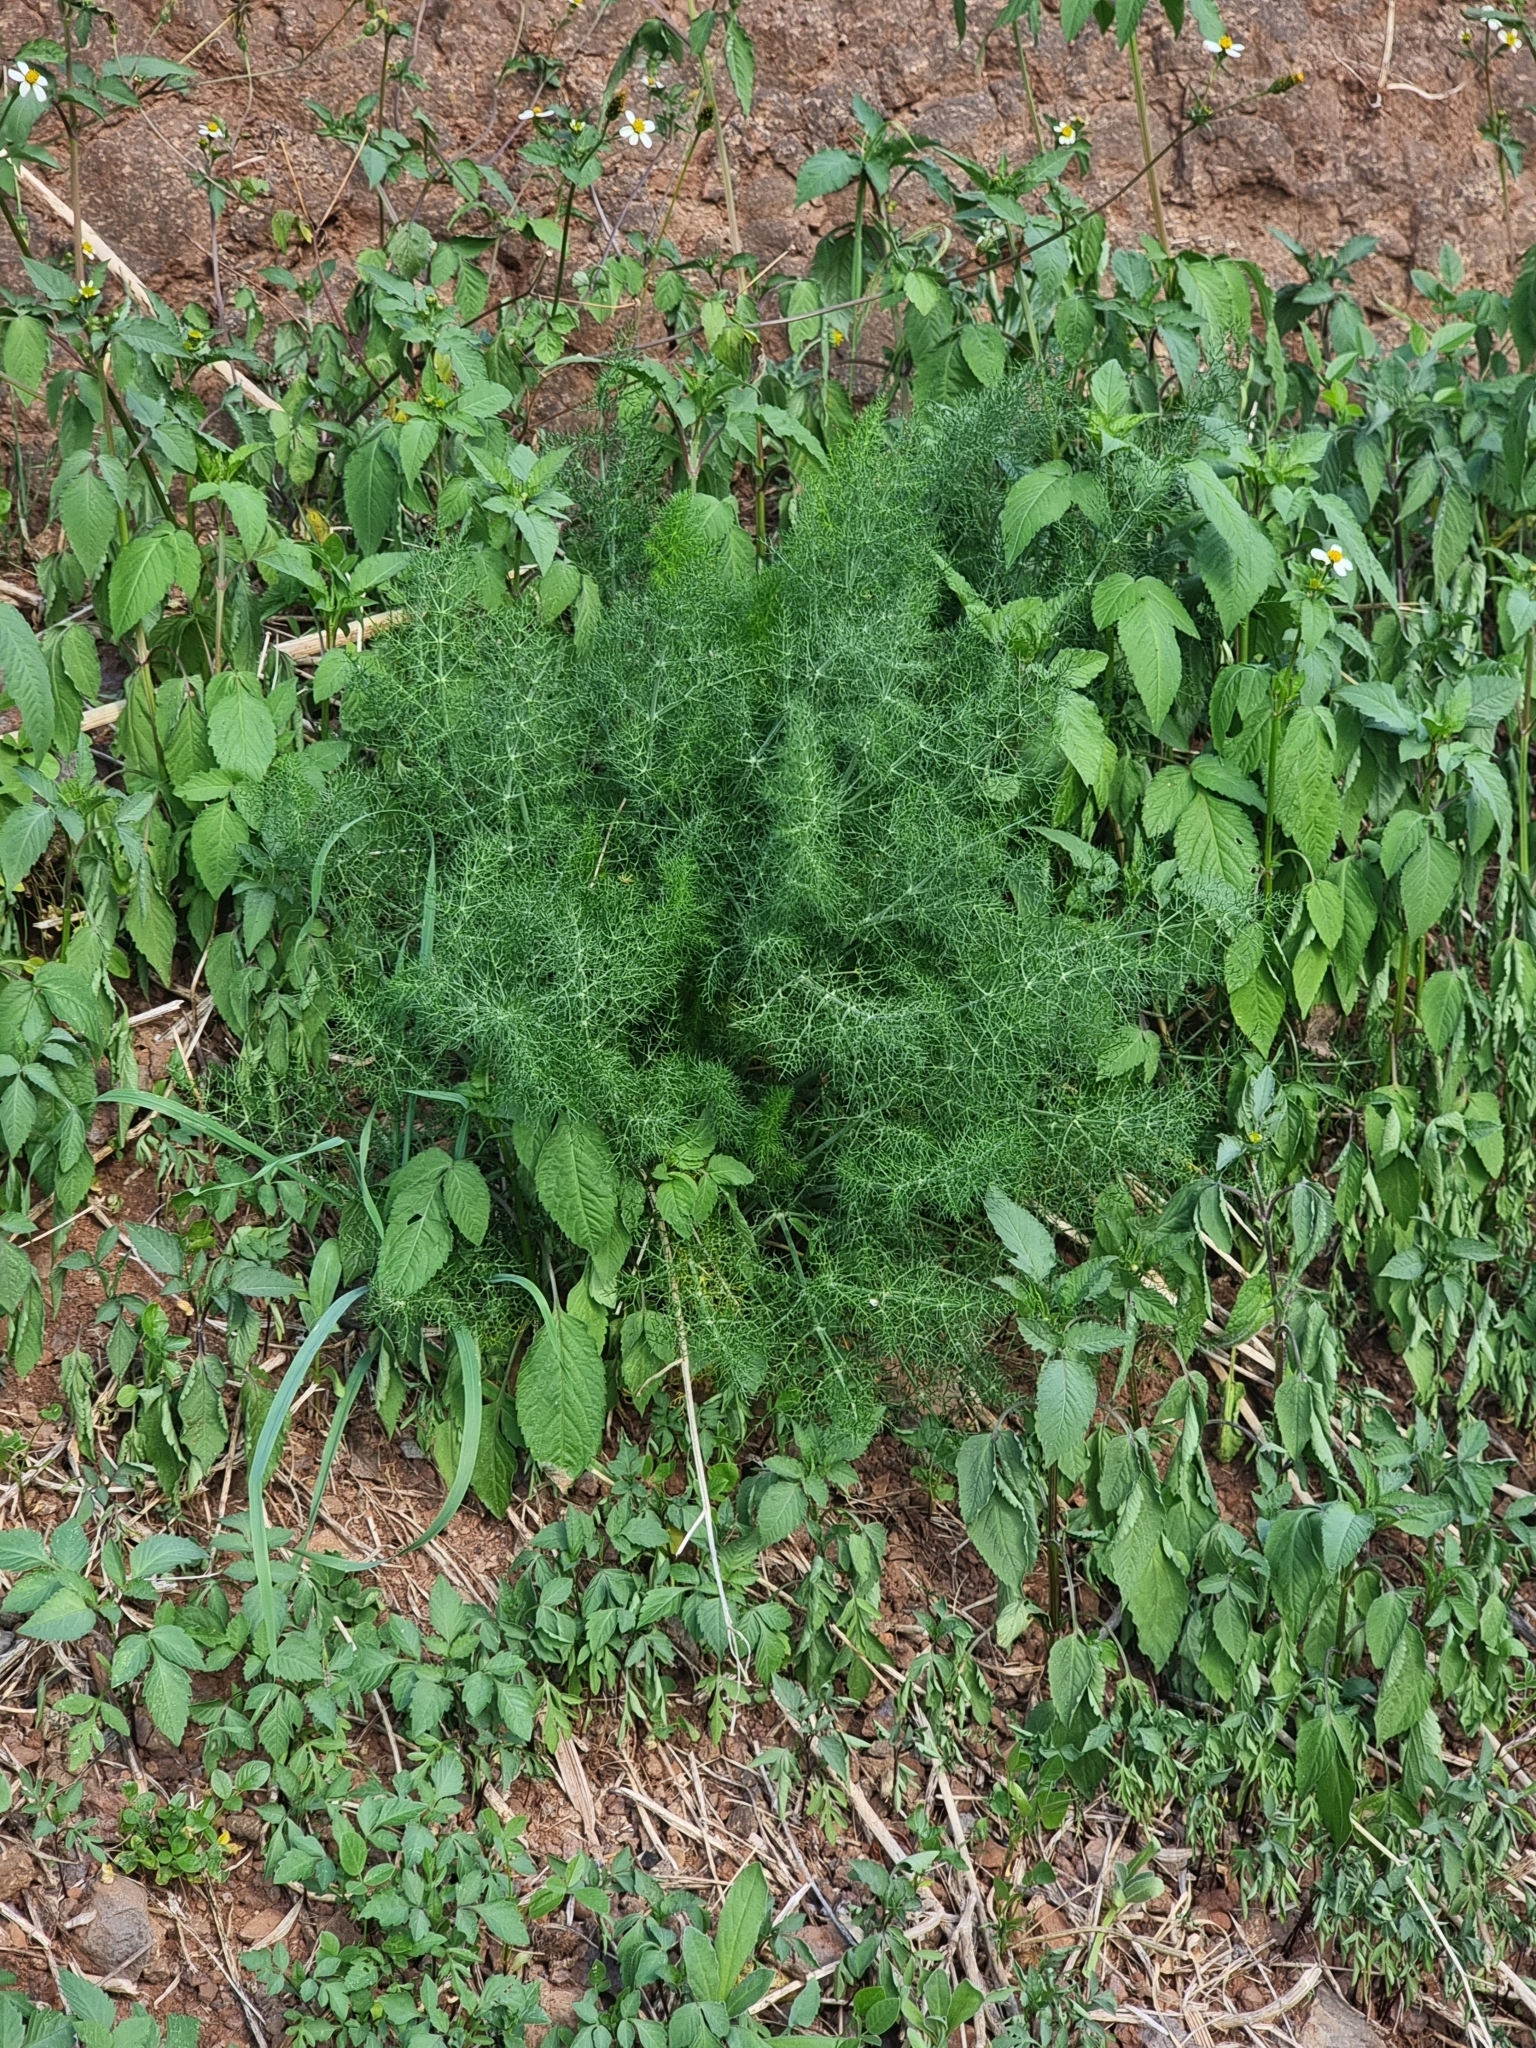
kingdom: Plantae
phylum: Tracheophyta
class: Magnoliopsida
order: Apiales
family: Apiaceae
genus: Foeniculum
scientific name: Foeniculum vulgare
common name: Fennel
